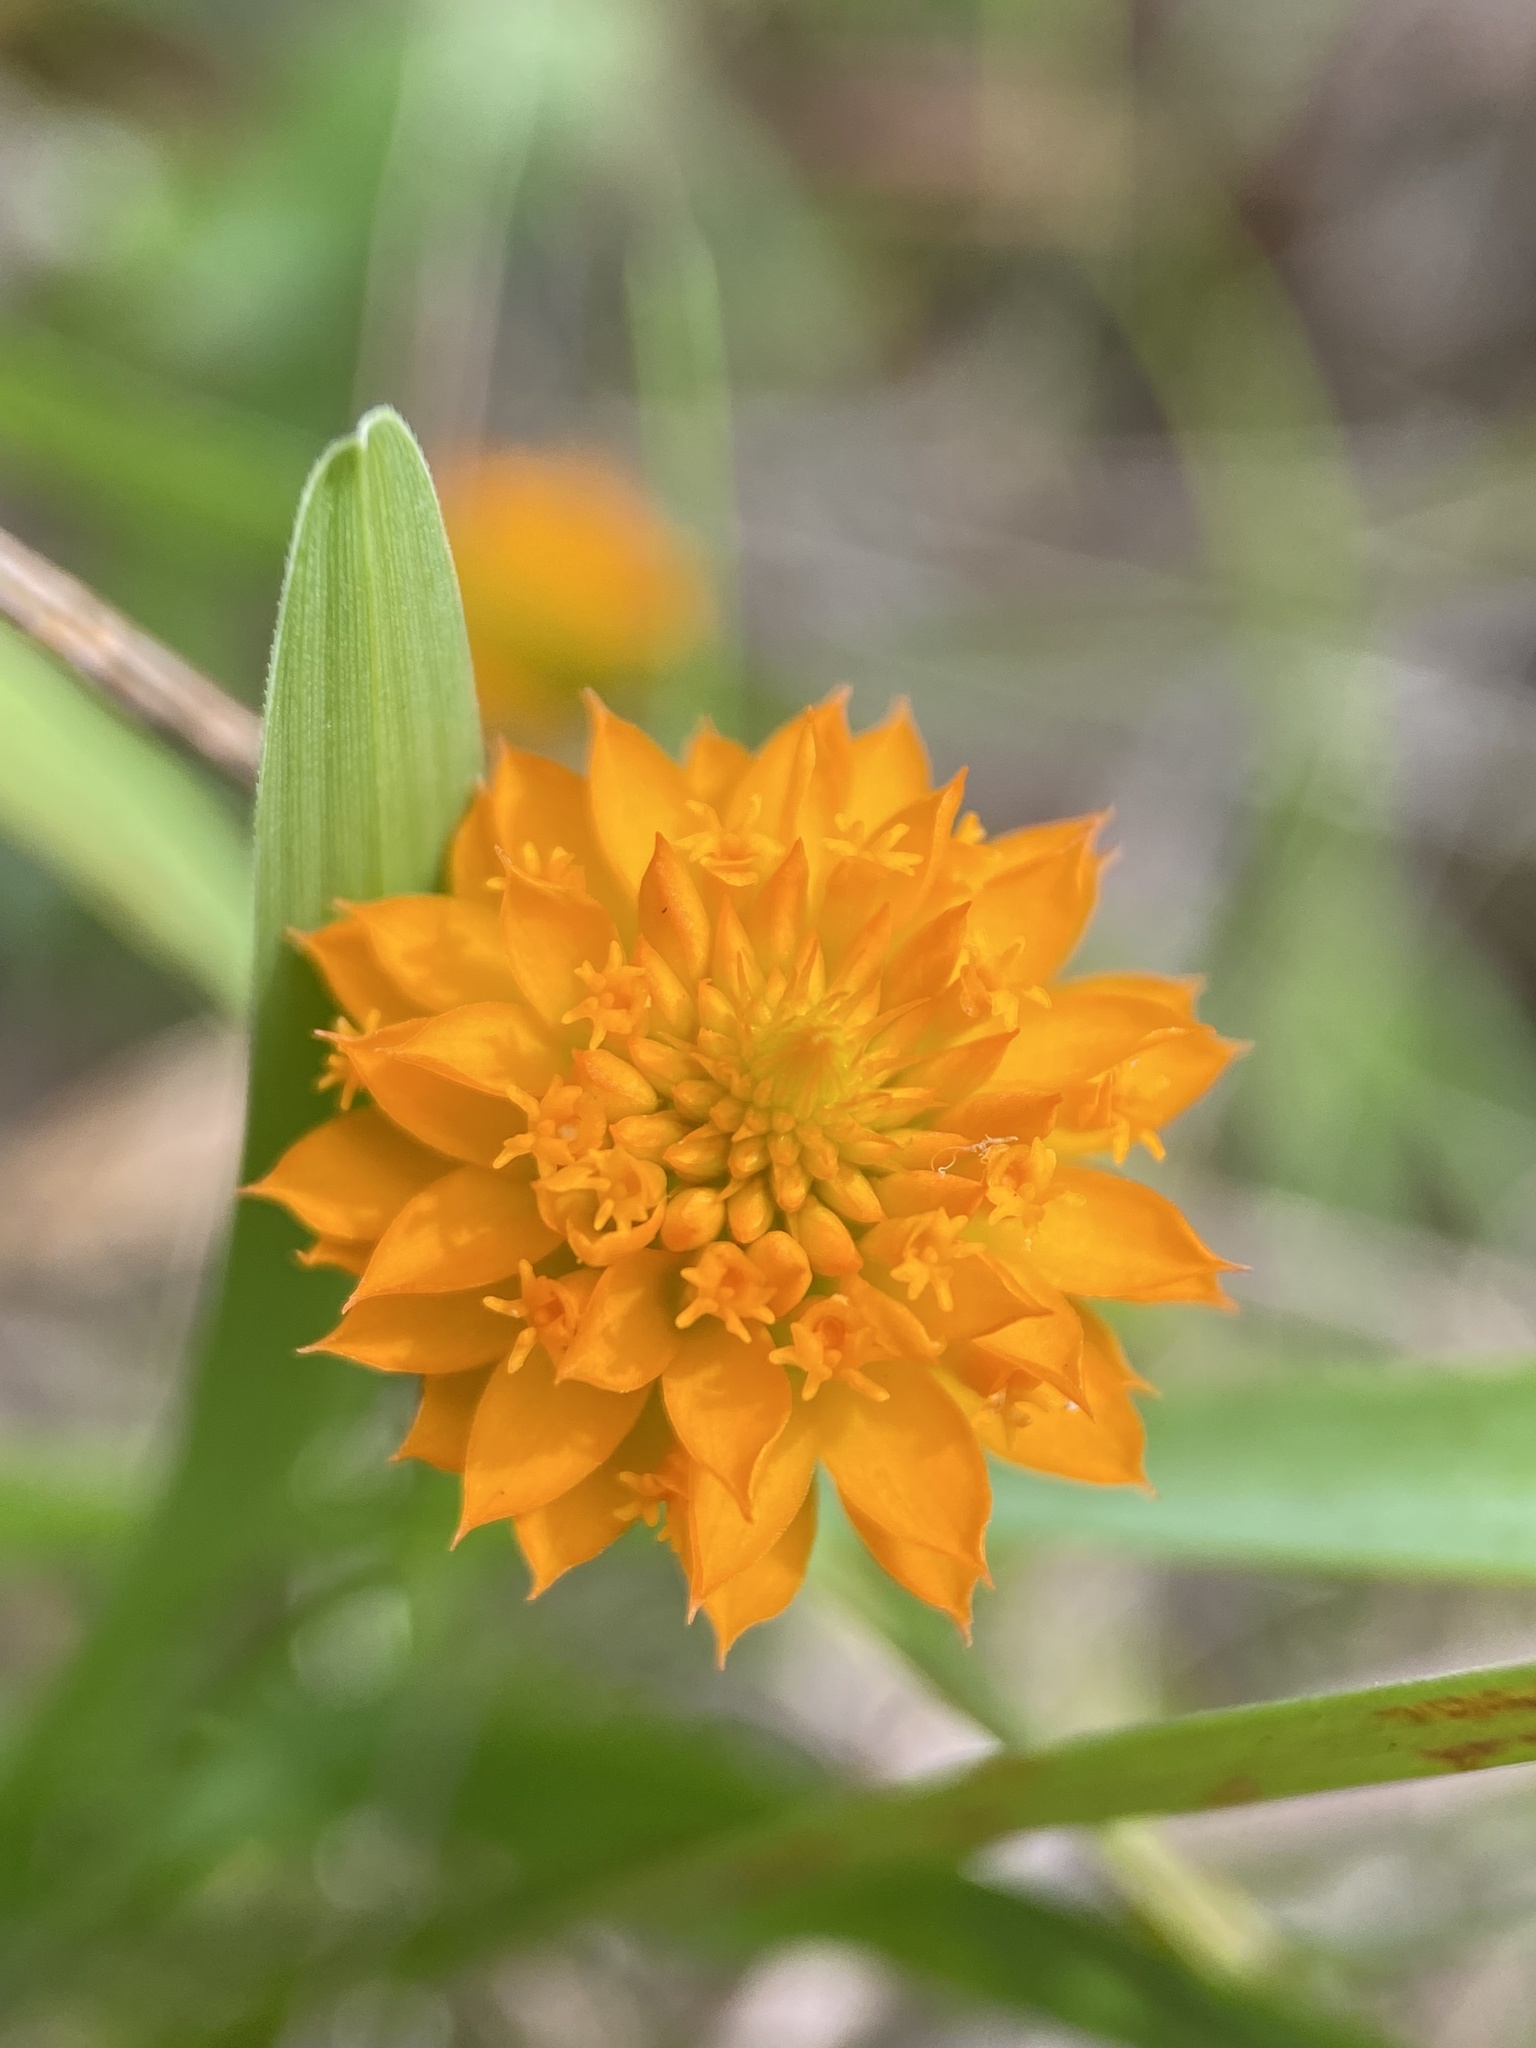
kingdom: Plantae
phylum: Tracheophyta
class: Magnoliopsida
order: Fabales
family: Polygalaceae
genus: Polygala
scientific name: Polygala lutea
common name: Orange milkwort
